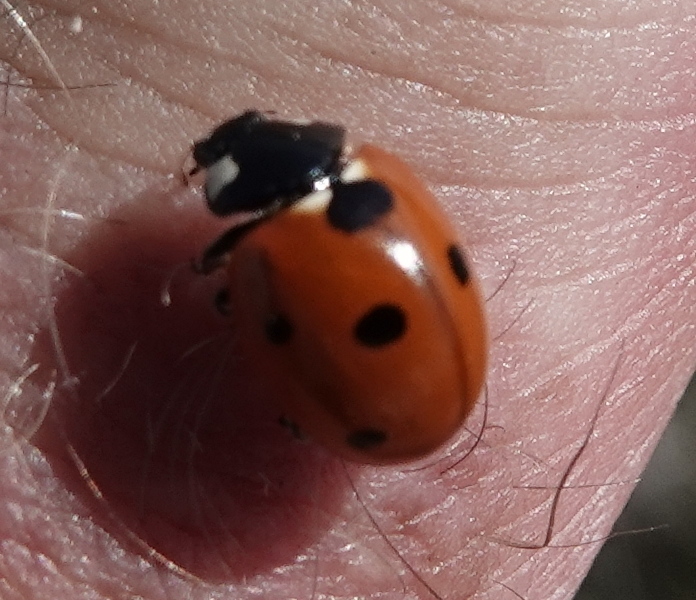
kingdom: Animalia
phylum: Arthropoda
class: Insecta
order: Coleoptera
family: Coccinellidae
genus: Coccinella
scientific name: Coccinella septempunctata
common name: Sevenspotted lady beetle
